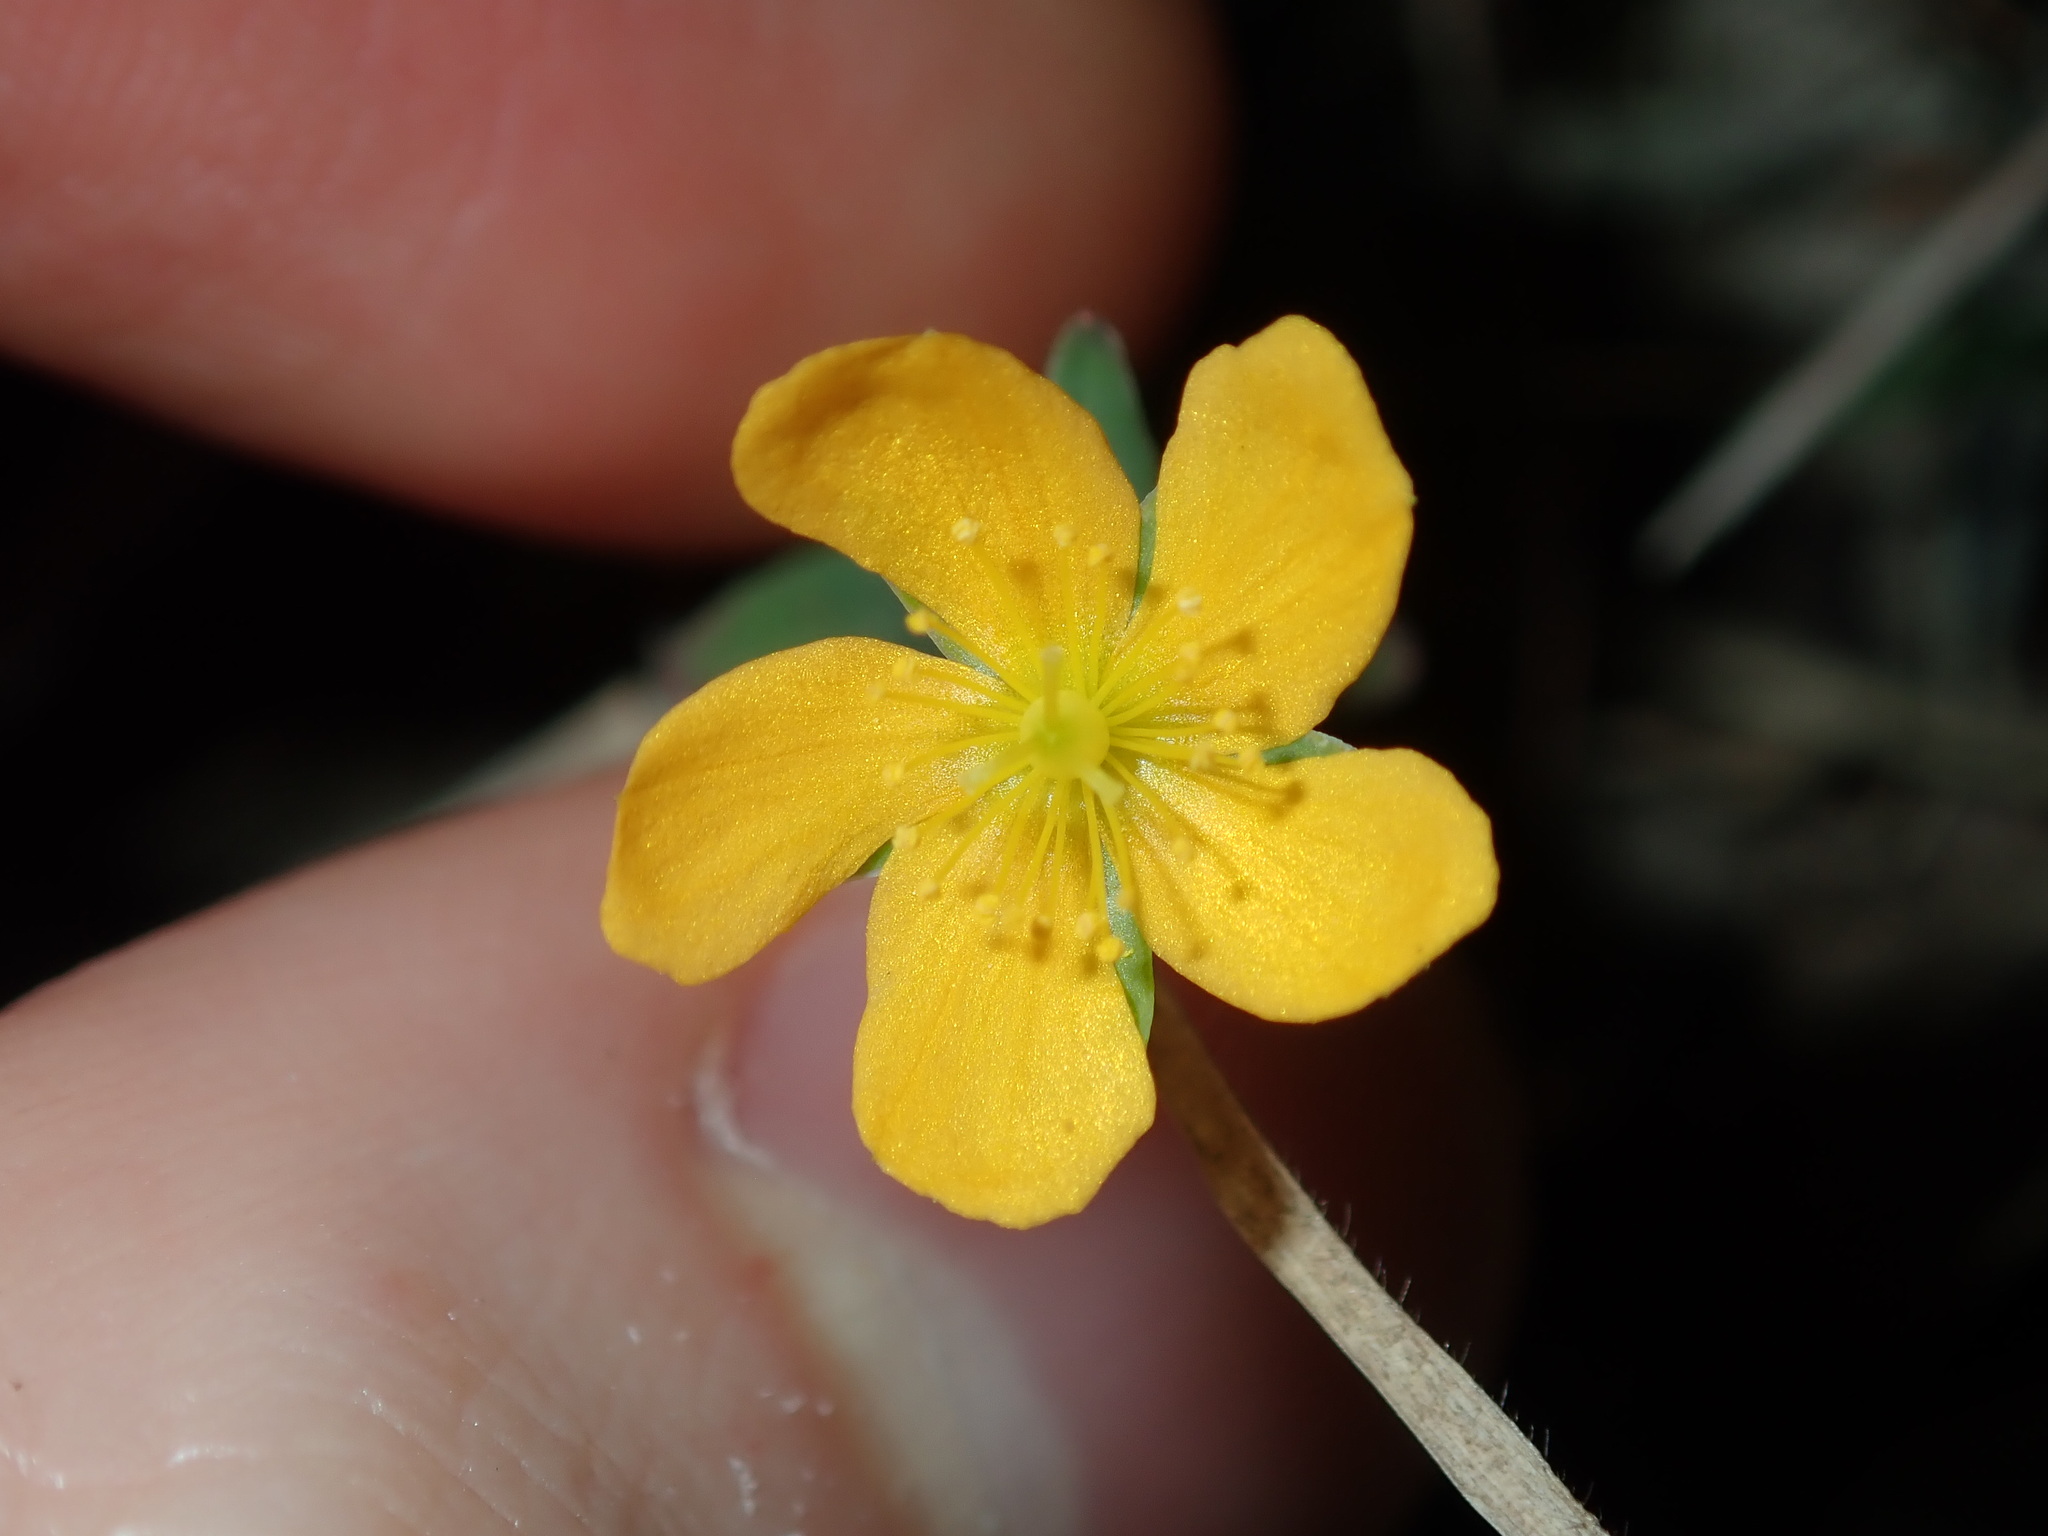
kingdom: Plantae
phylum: Tracheophyta
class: Magnoliopsida
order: Malpighiales
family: Hypericaceae
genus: Hypericum
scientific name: Hypericum gramineum
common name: Grassy st. johnswort
